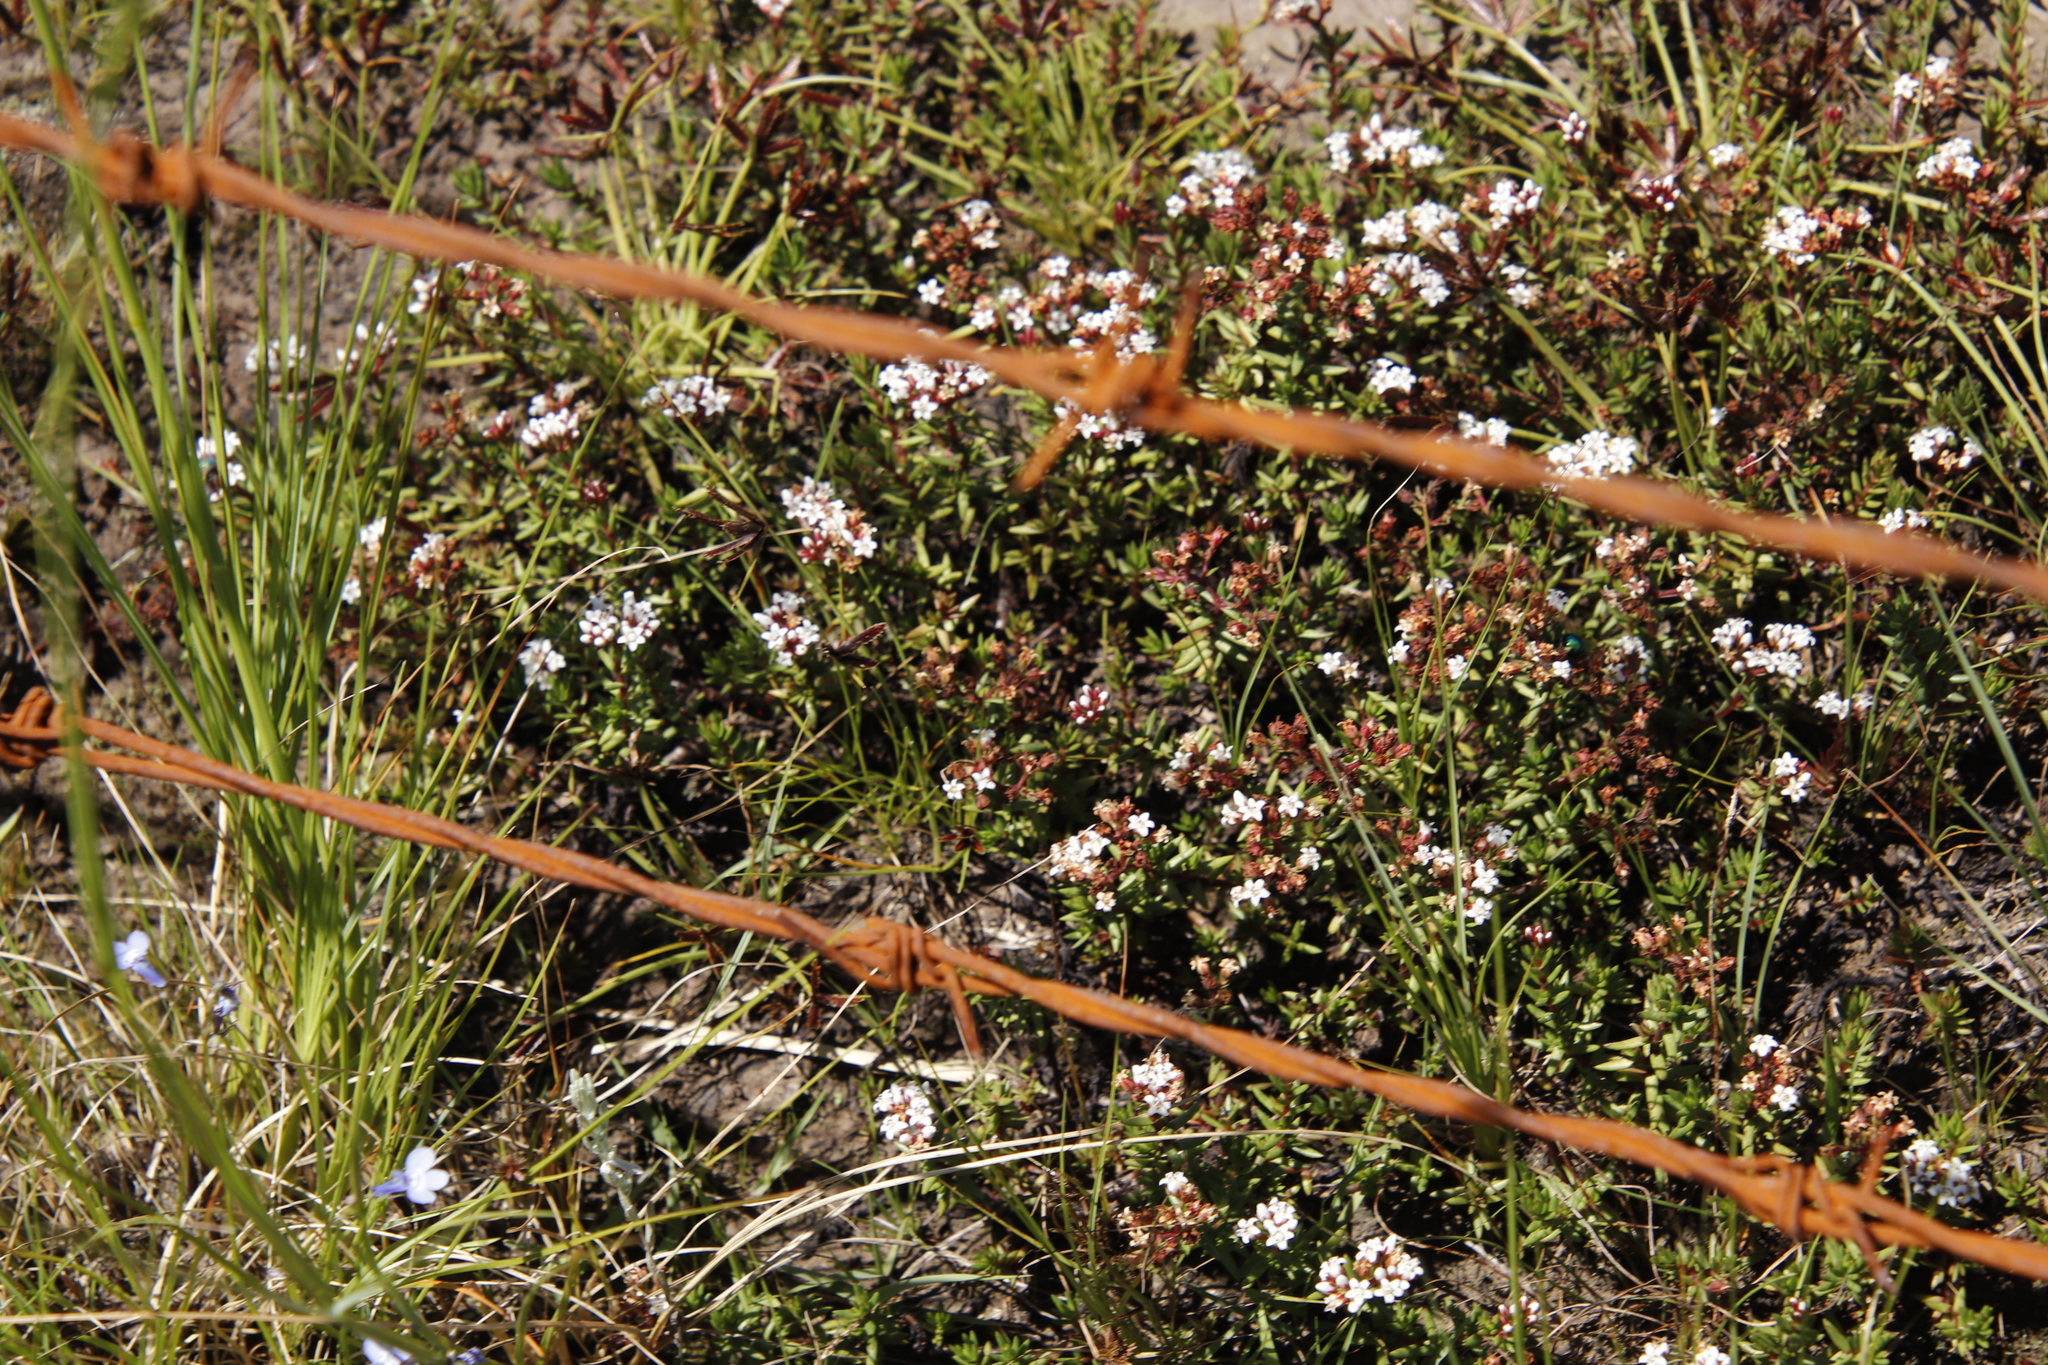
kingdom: Plantae
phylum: Tracheophyta
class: Magnoliopsida
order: Saxifragales
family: Crassulaceae
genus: Crassula
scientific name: Crassula dependens
